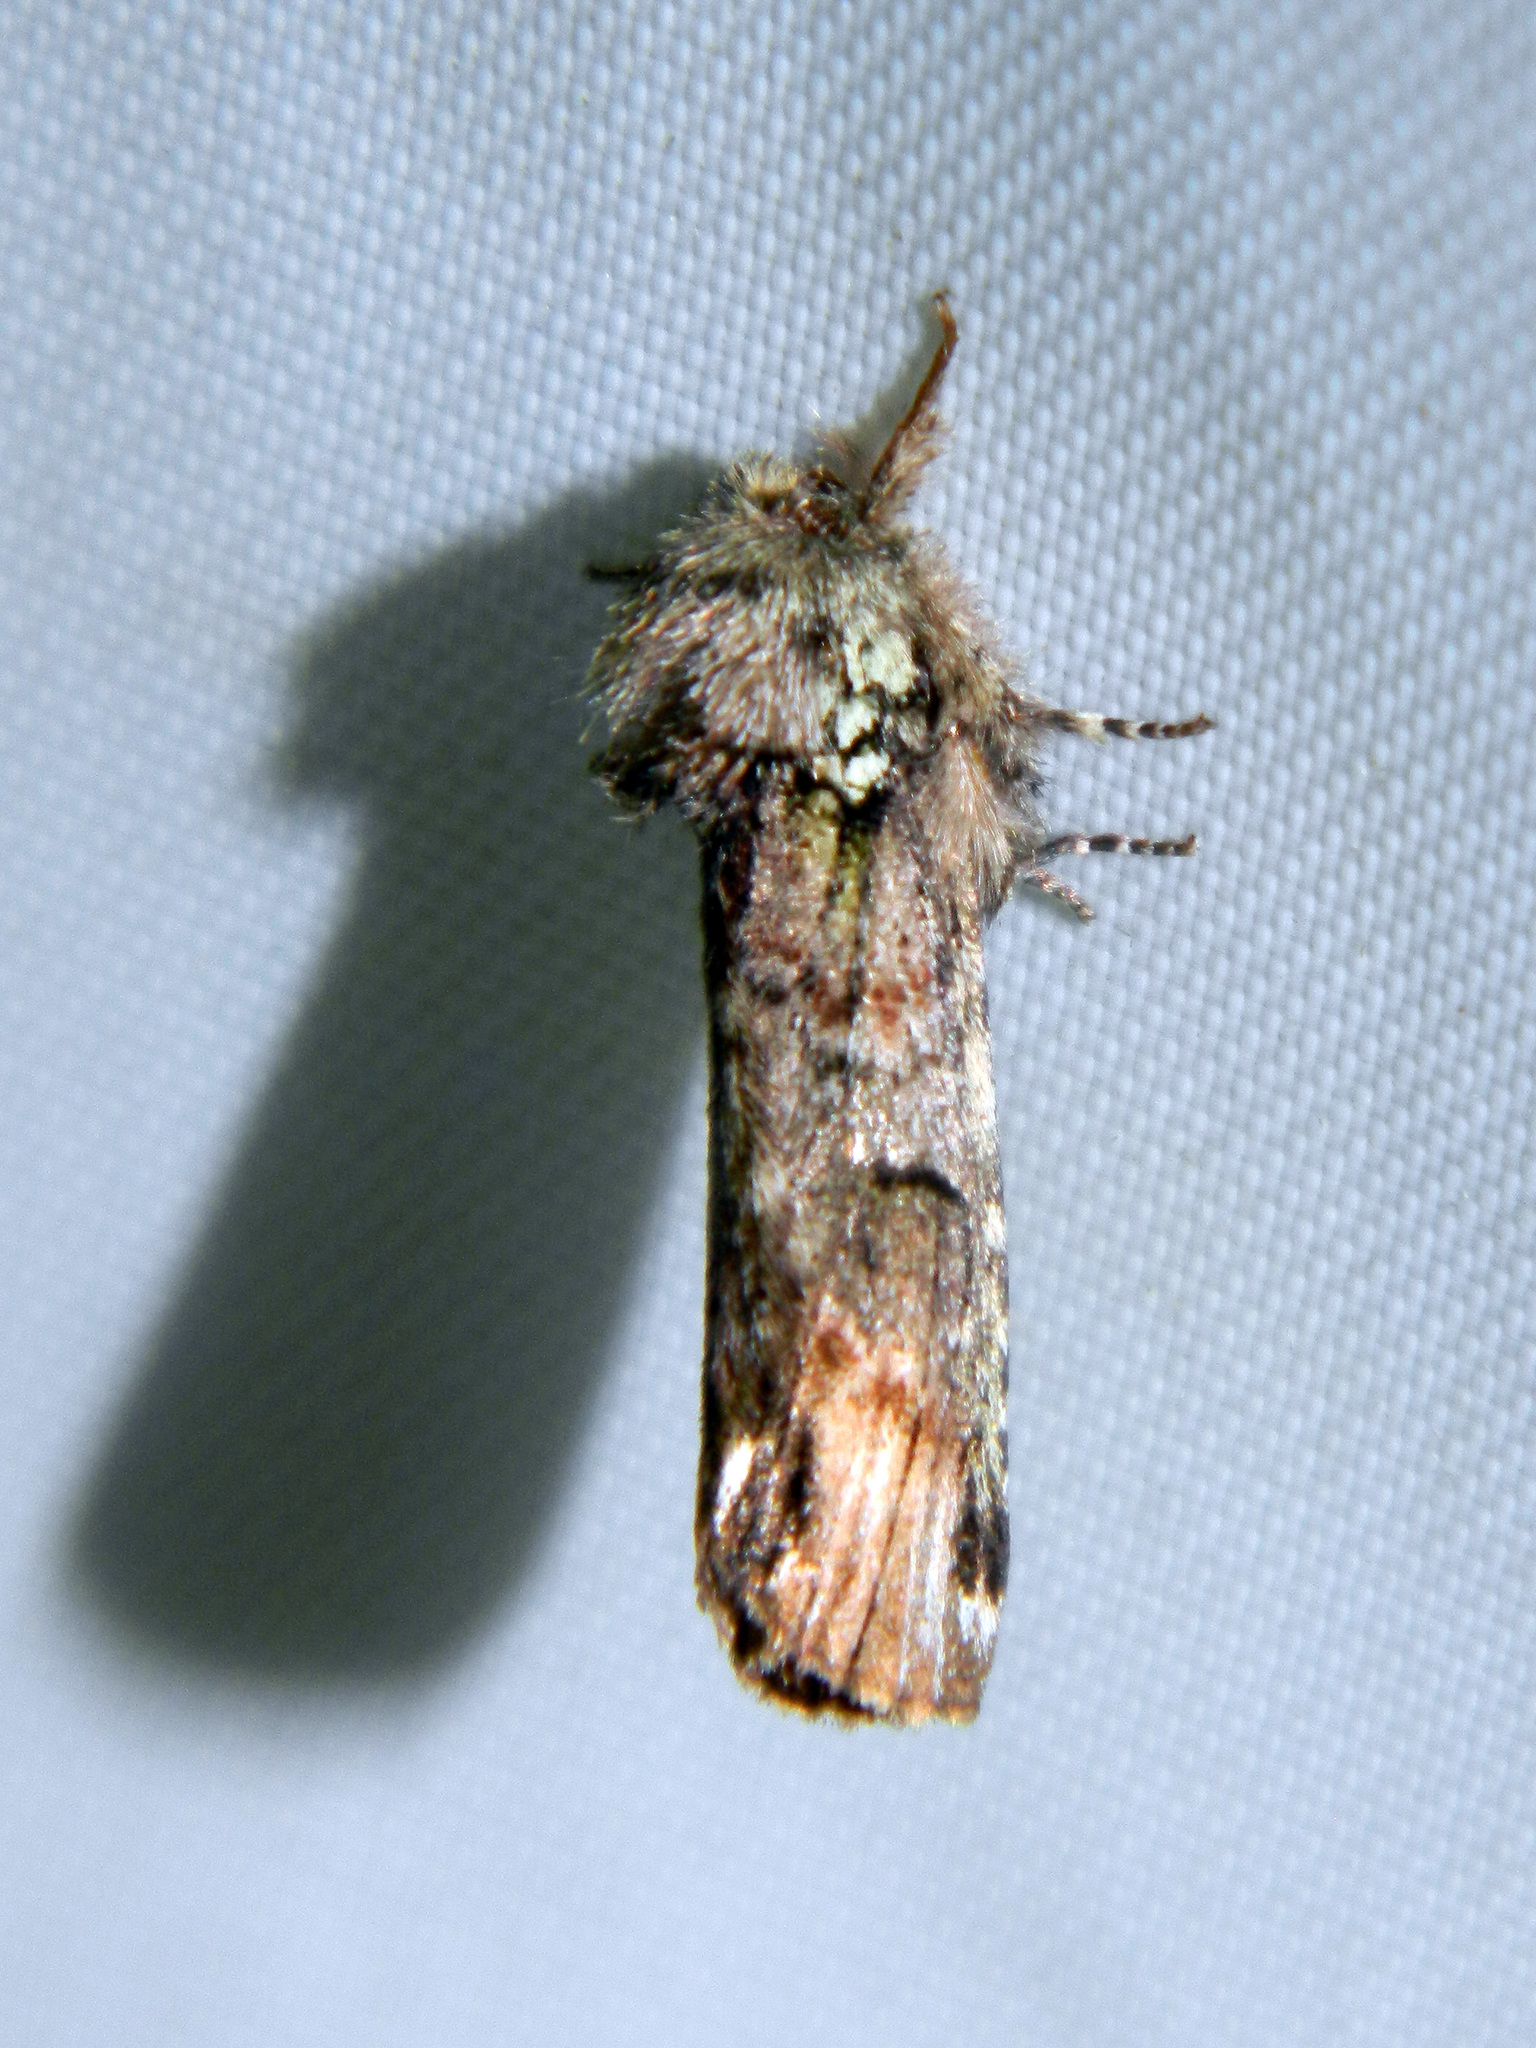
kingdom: Animalia
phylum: Arthropoda
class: Insecta
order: Lepidoptera
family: Notodontidae
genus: Schizura
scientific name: Schizura
